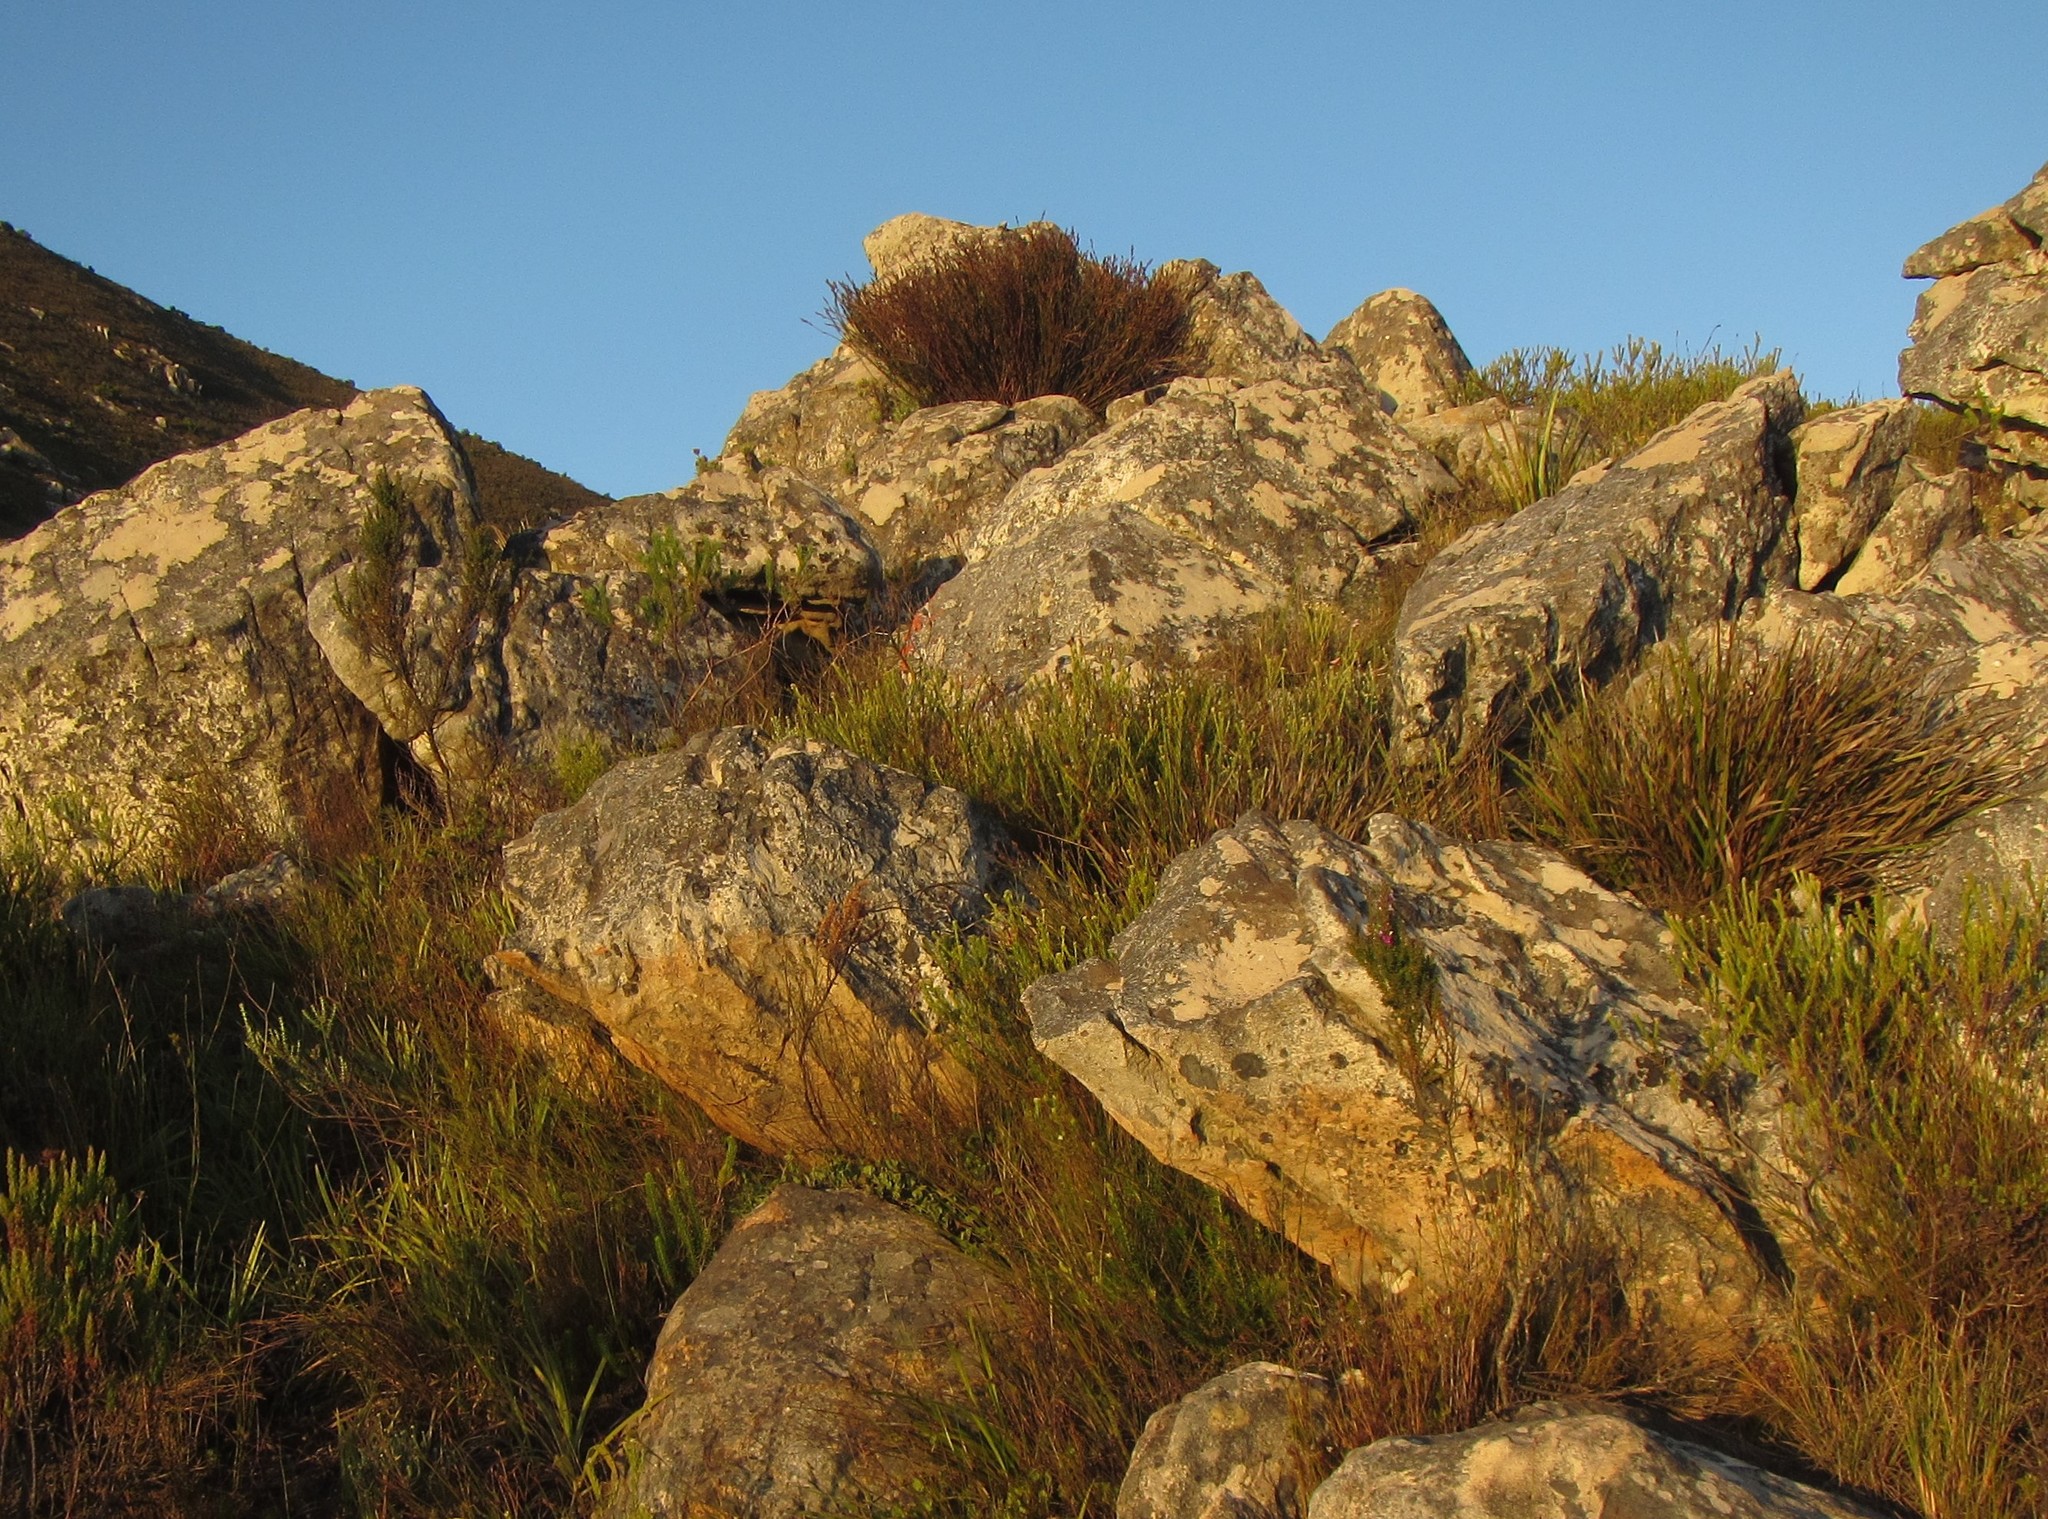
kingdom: Plantae
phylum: Tracheophyta
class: Liliopsida
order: Poales
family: Restionaceae
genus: Restio
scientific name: Restio fraternus
